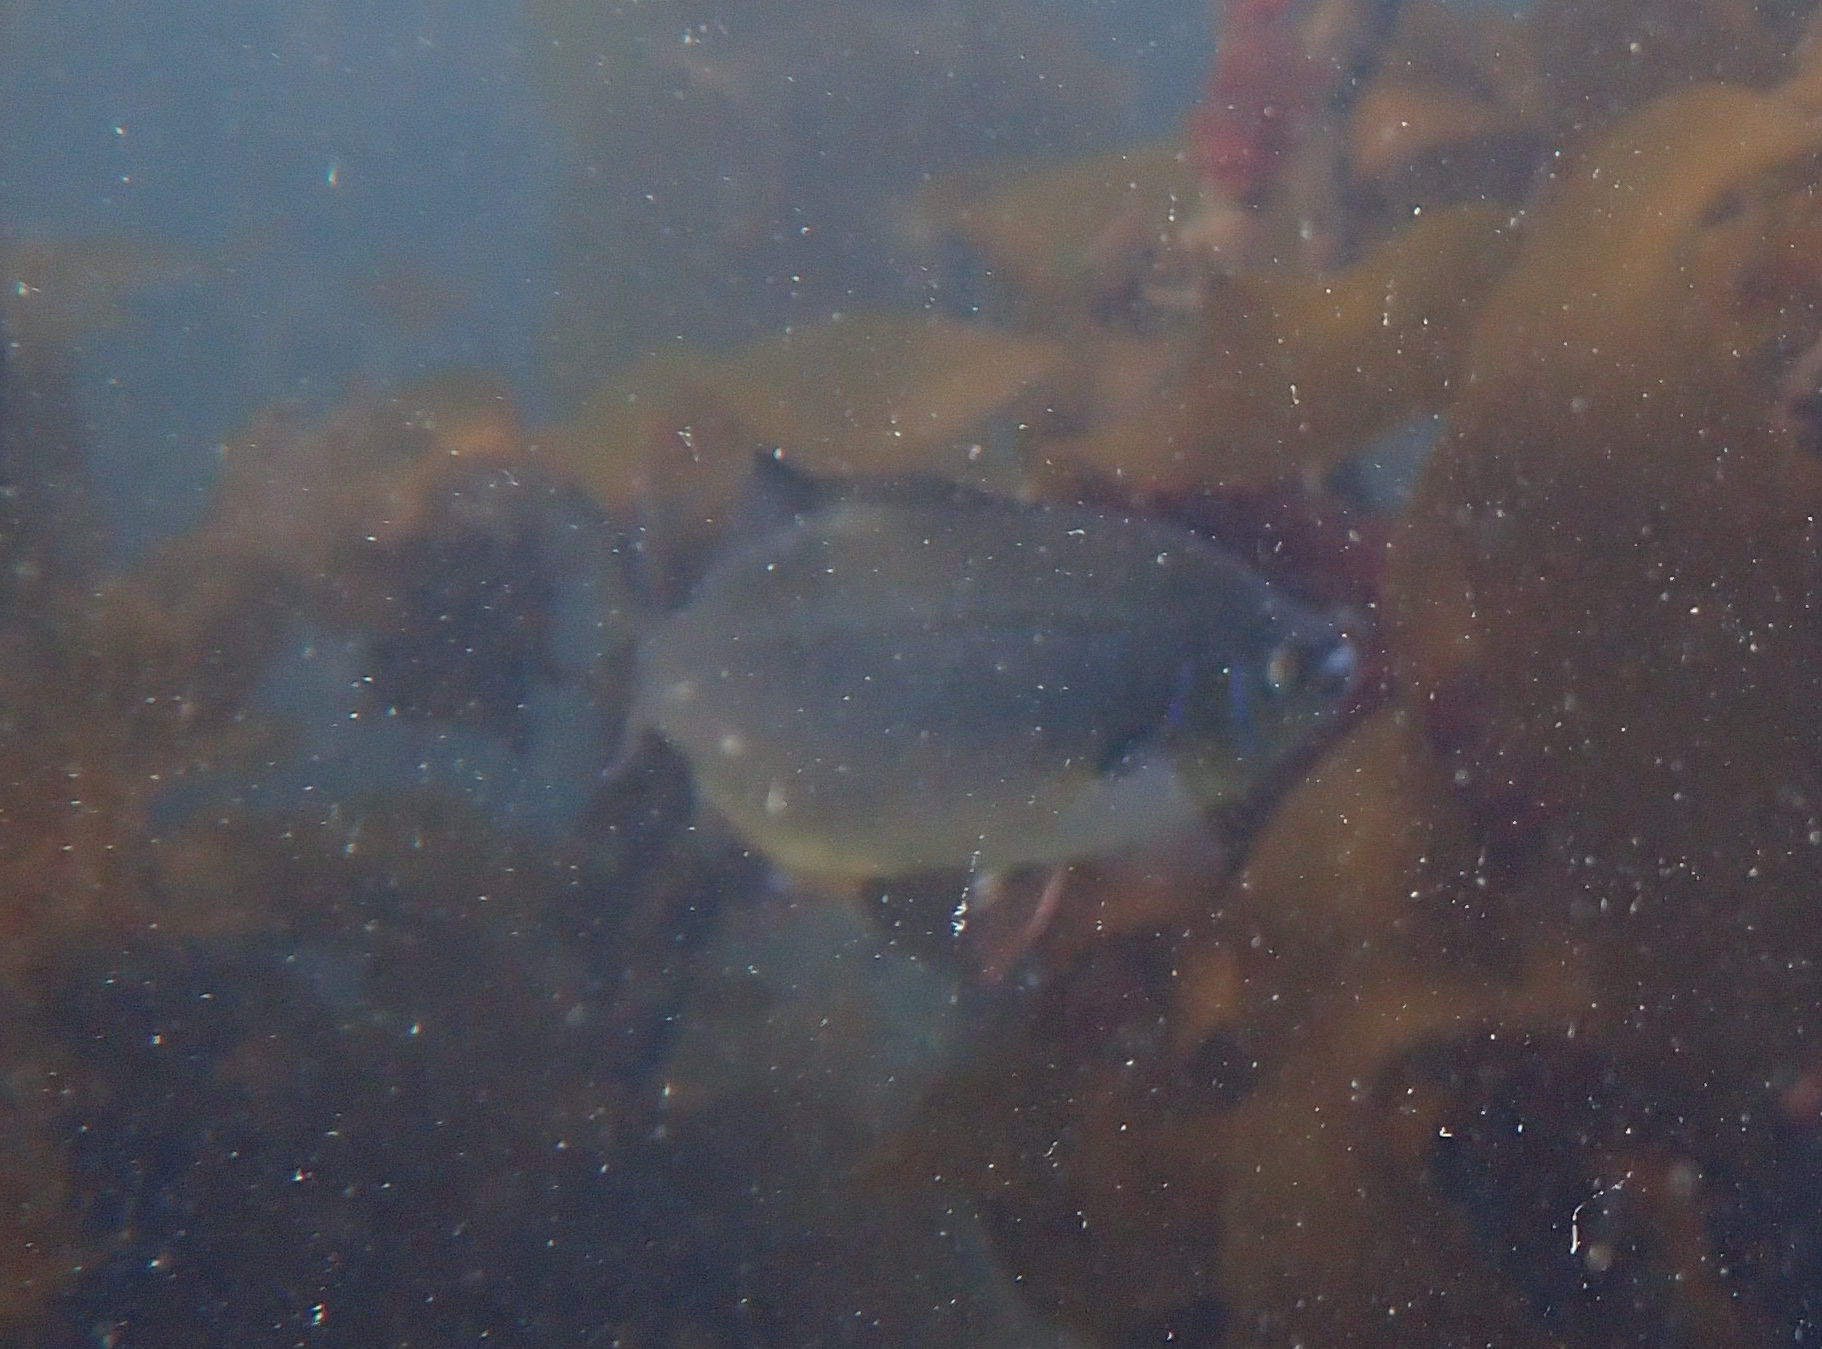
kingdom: Animalia
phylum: Chordata
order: Perciformes
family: Embiotocidae
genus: Embiotoca
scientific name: Embiotoca lateralis
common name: Striped surfperch
